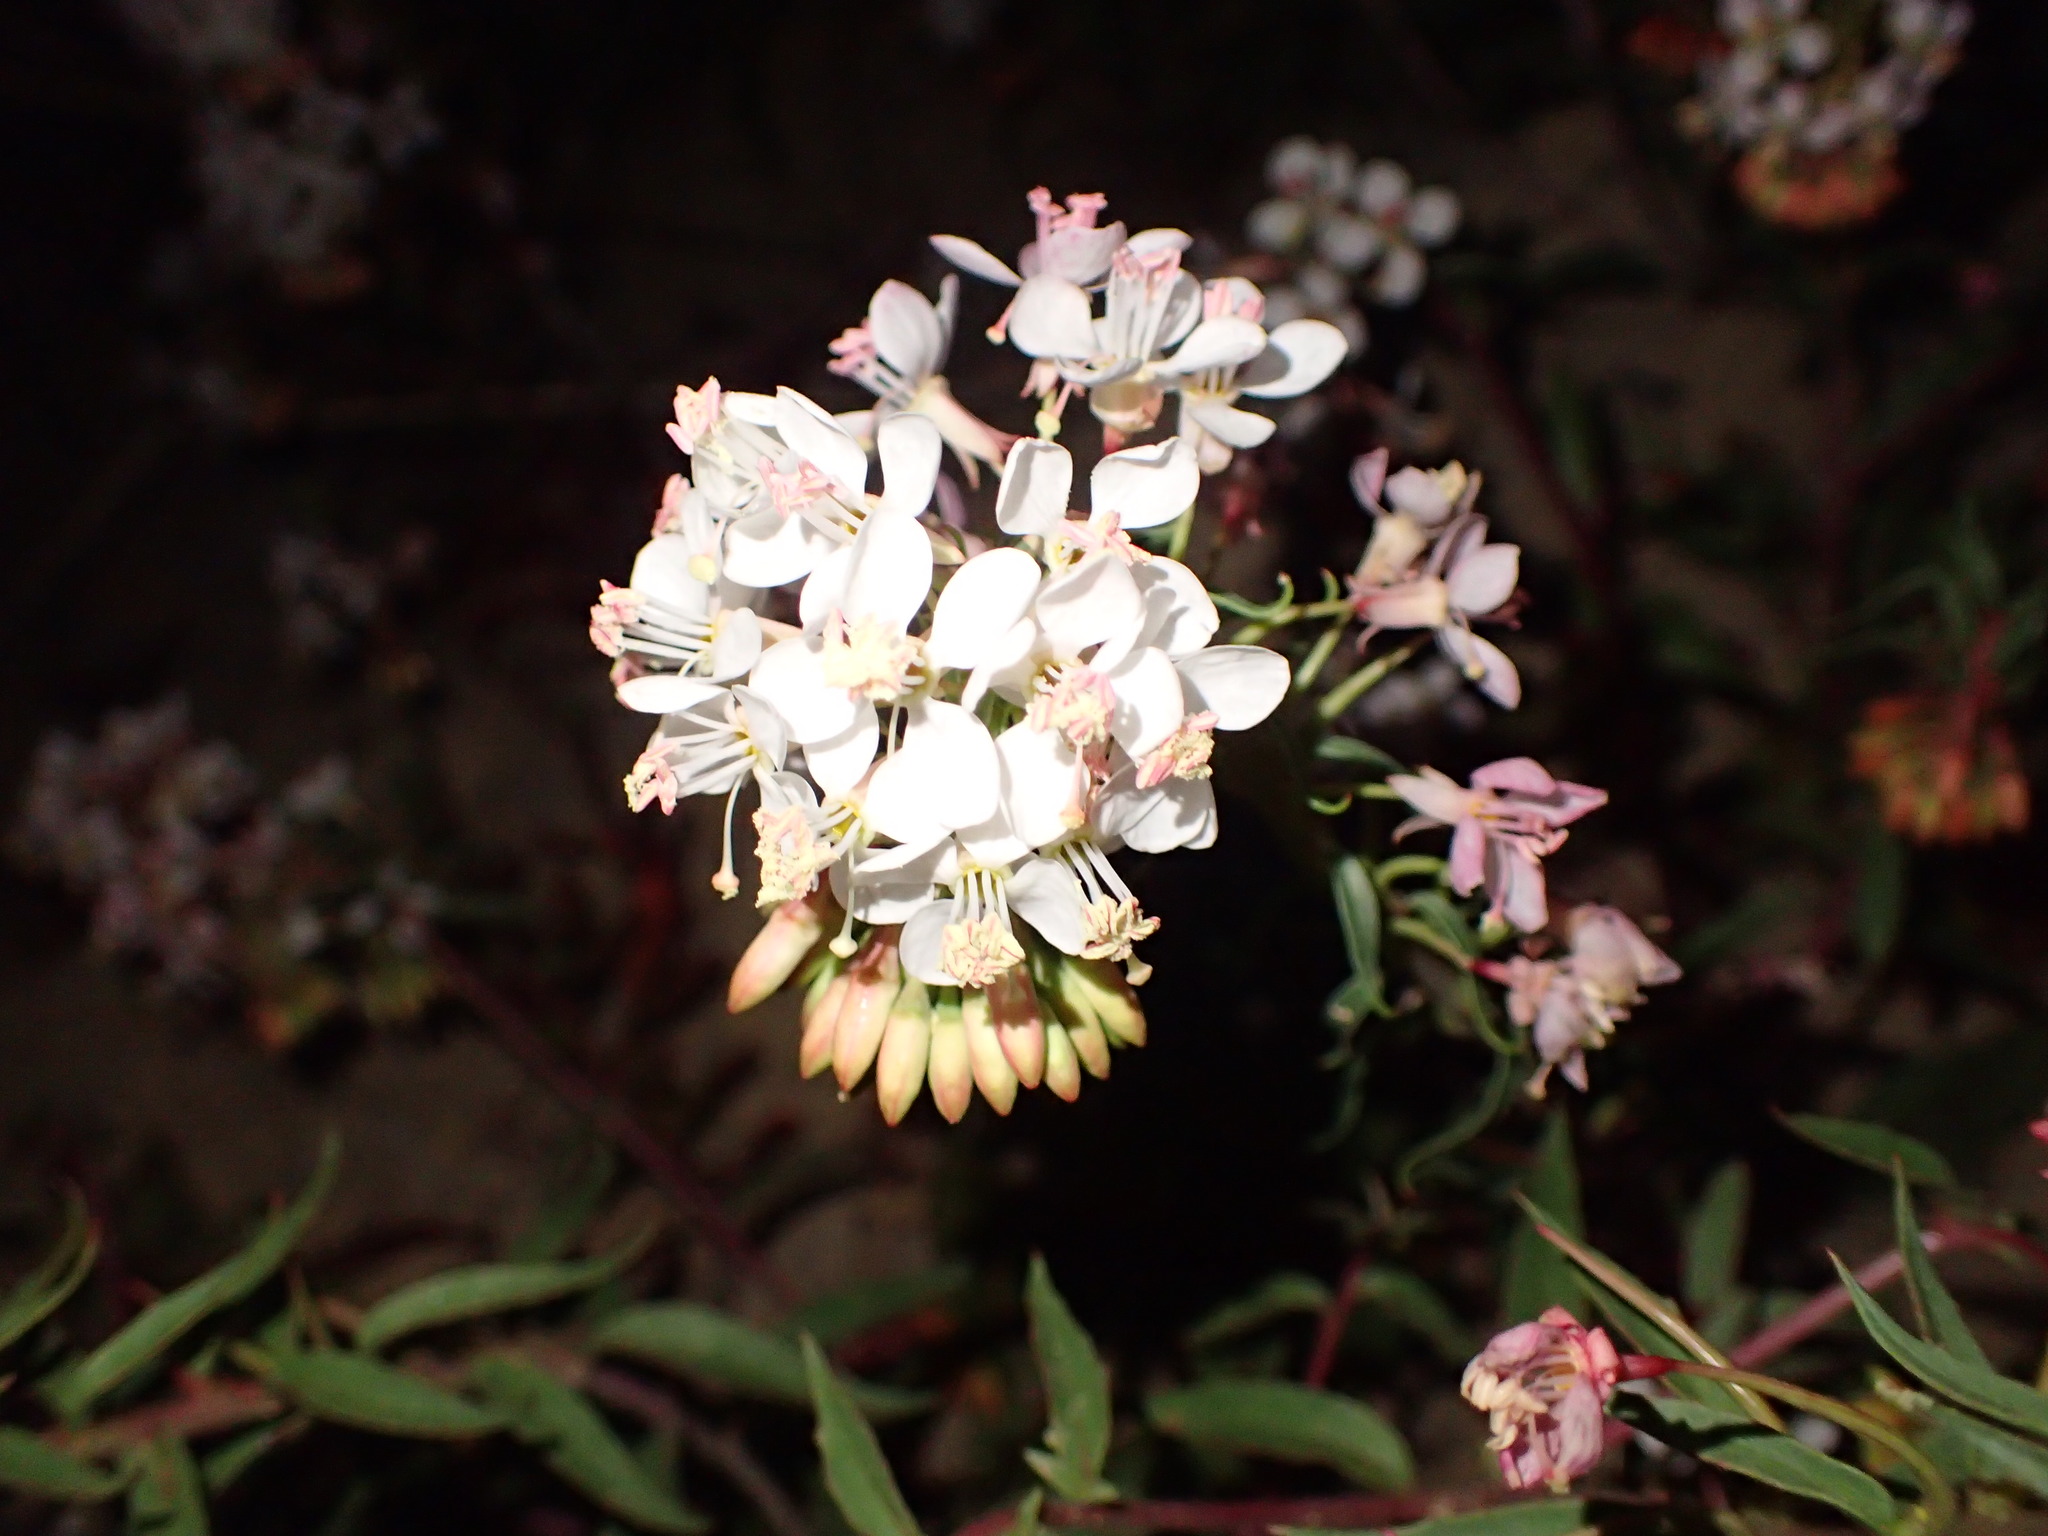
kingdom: Plantae
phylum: Tracheophyta
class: Magnoliopsida
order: Myrtales
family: Onagraceae
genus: Eremothera
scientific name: Eremothera boothii
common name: Booth's evening primrose
